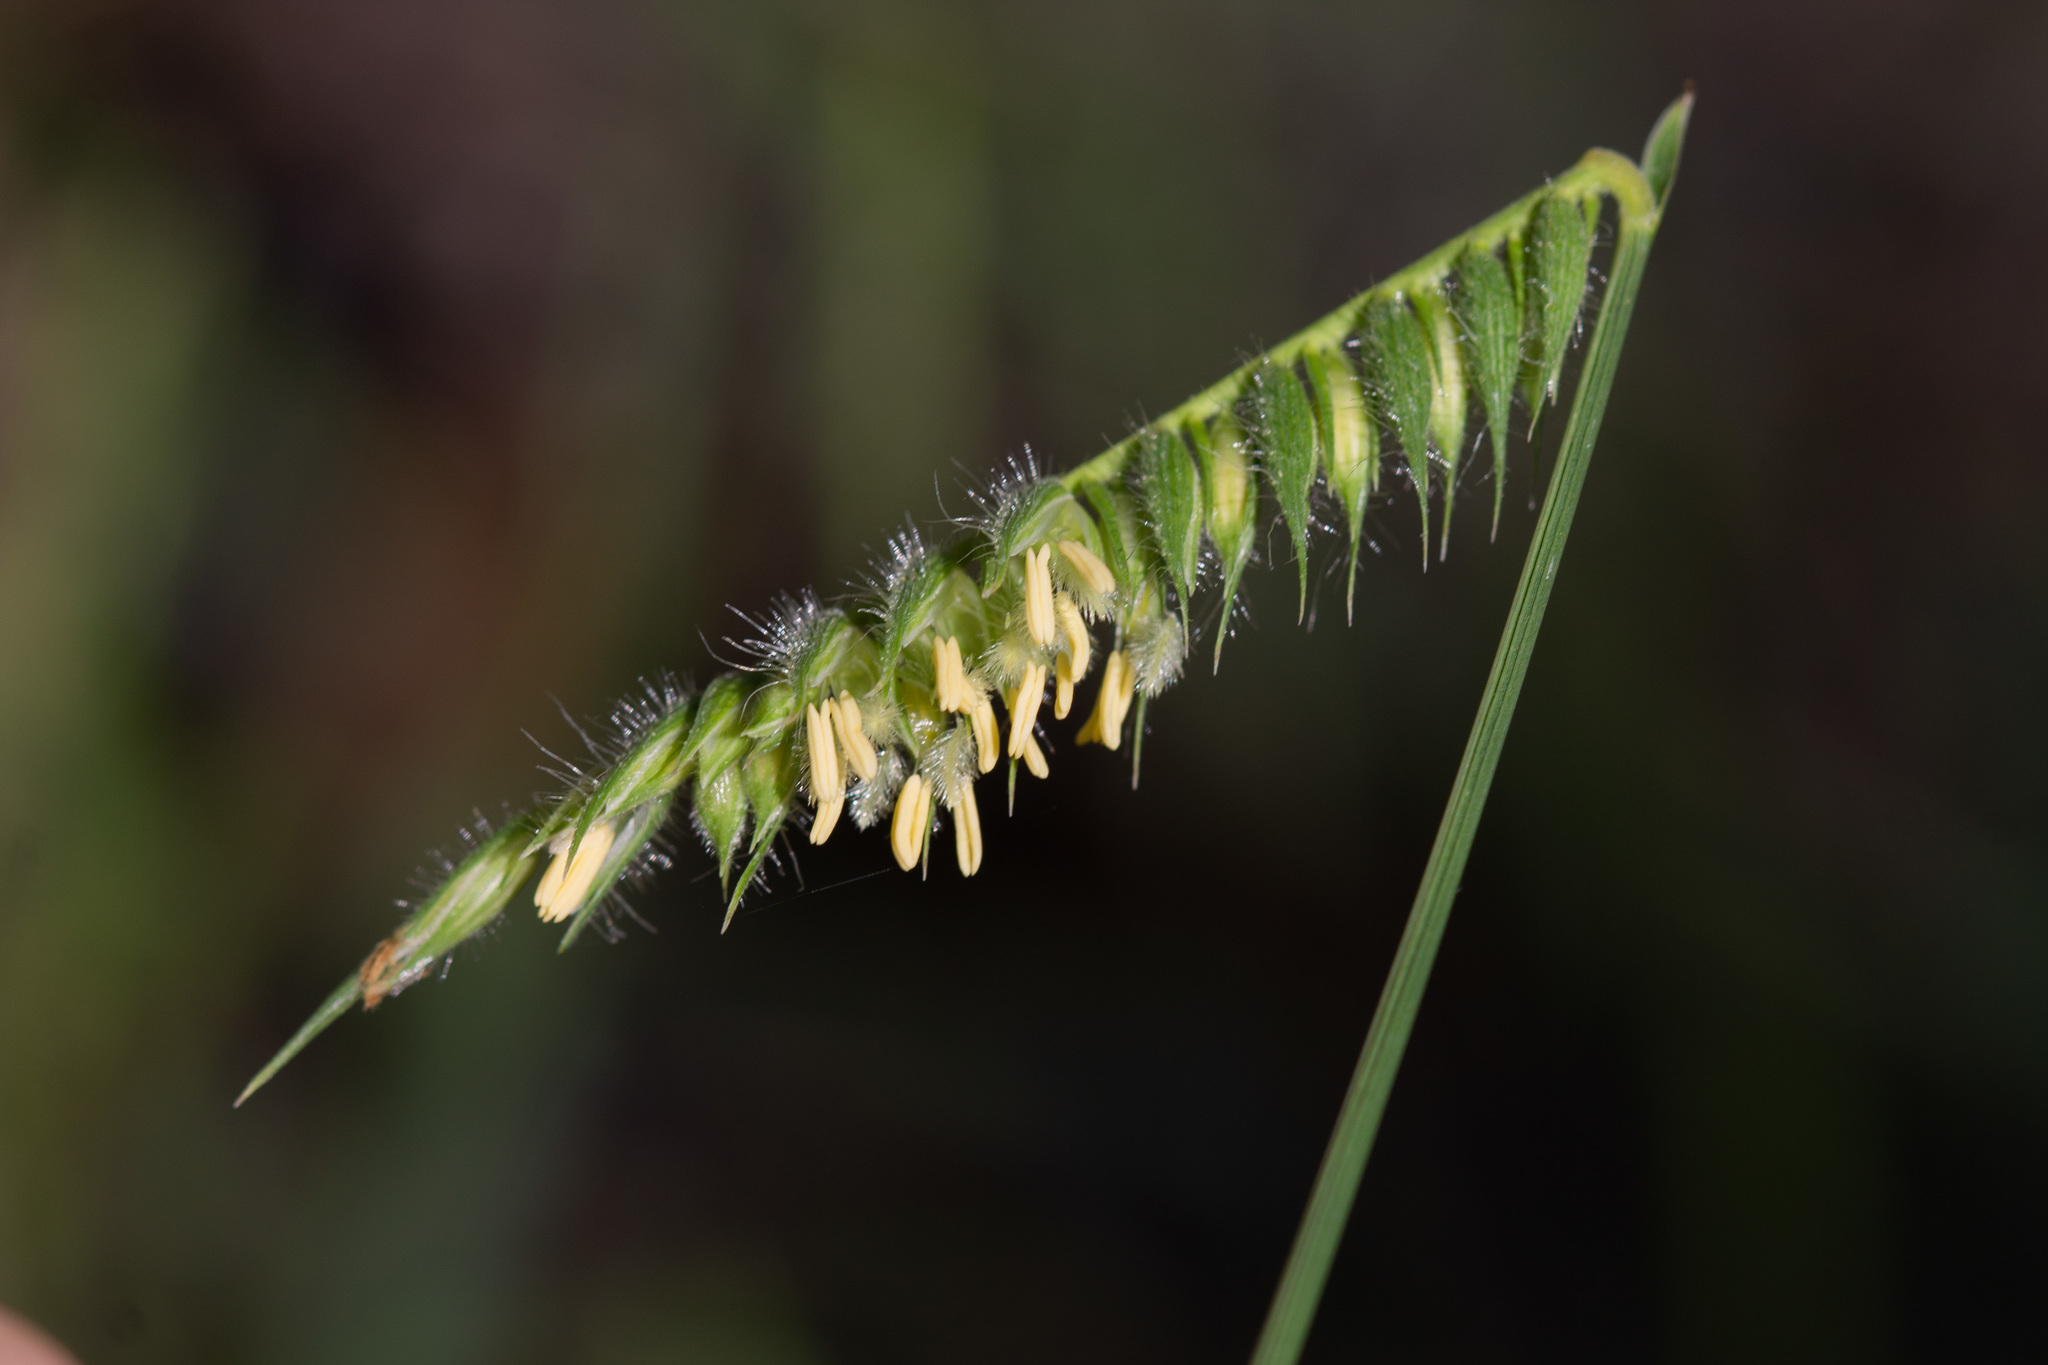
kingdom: Plantae
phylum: Tracheophyta
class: Liliopsida
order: Poales
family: Poaceae
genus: Echinolaena
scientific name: Echinolaena inflexa
